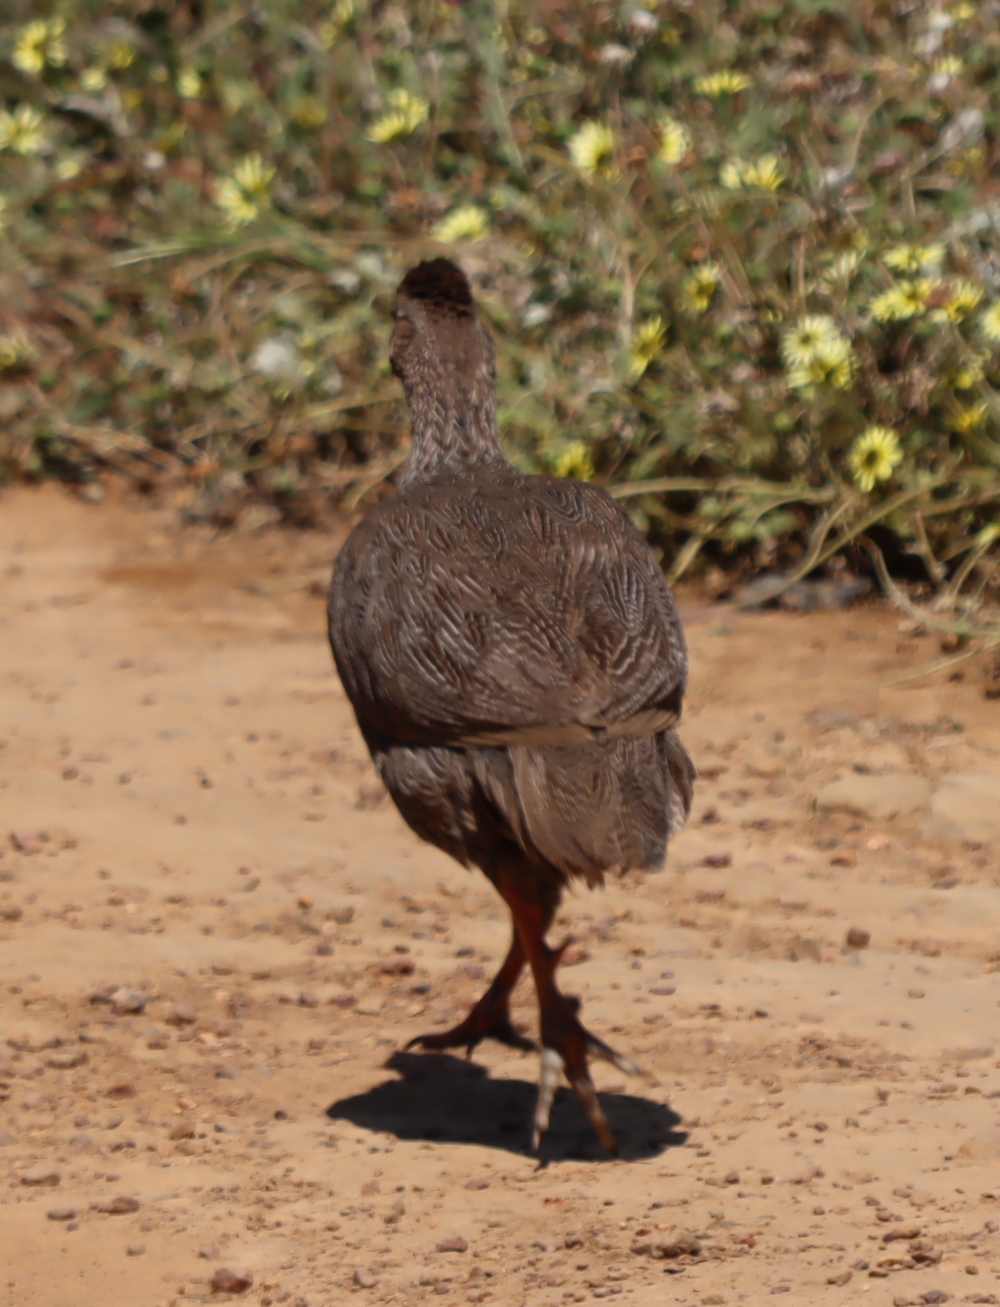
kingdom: Animalia
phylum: Chordata
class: Aves
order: Galliformes
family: Phasianidae
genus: Pternistis
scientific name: Pternistis capensis
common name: Cape spurfowl
